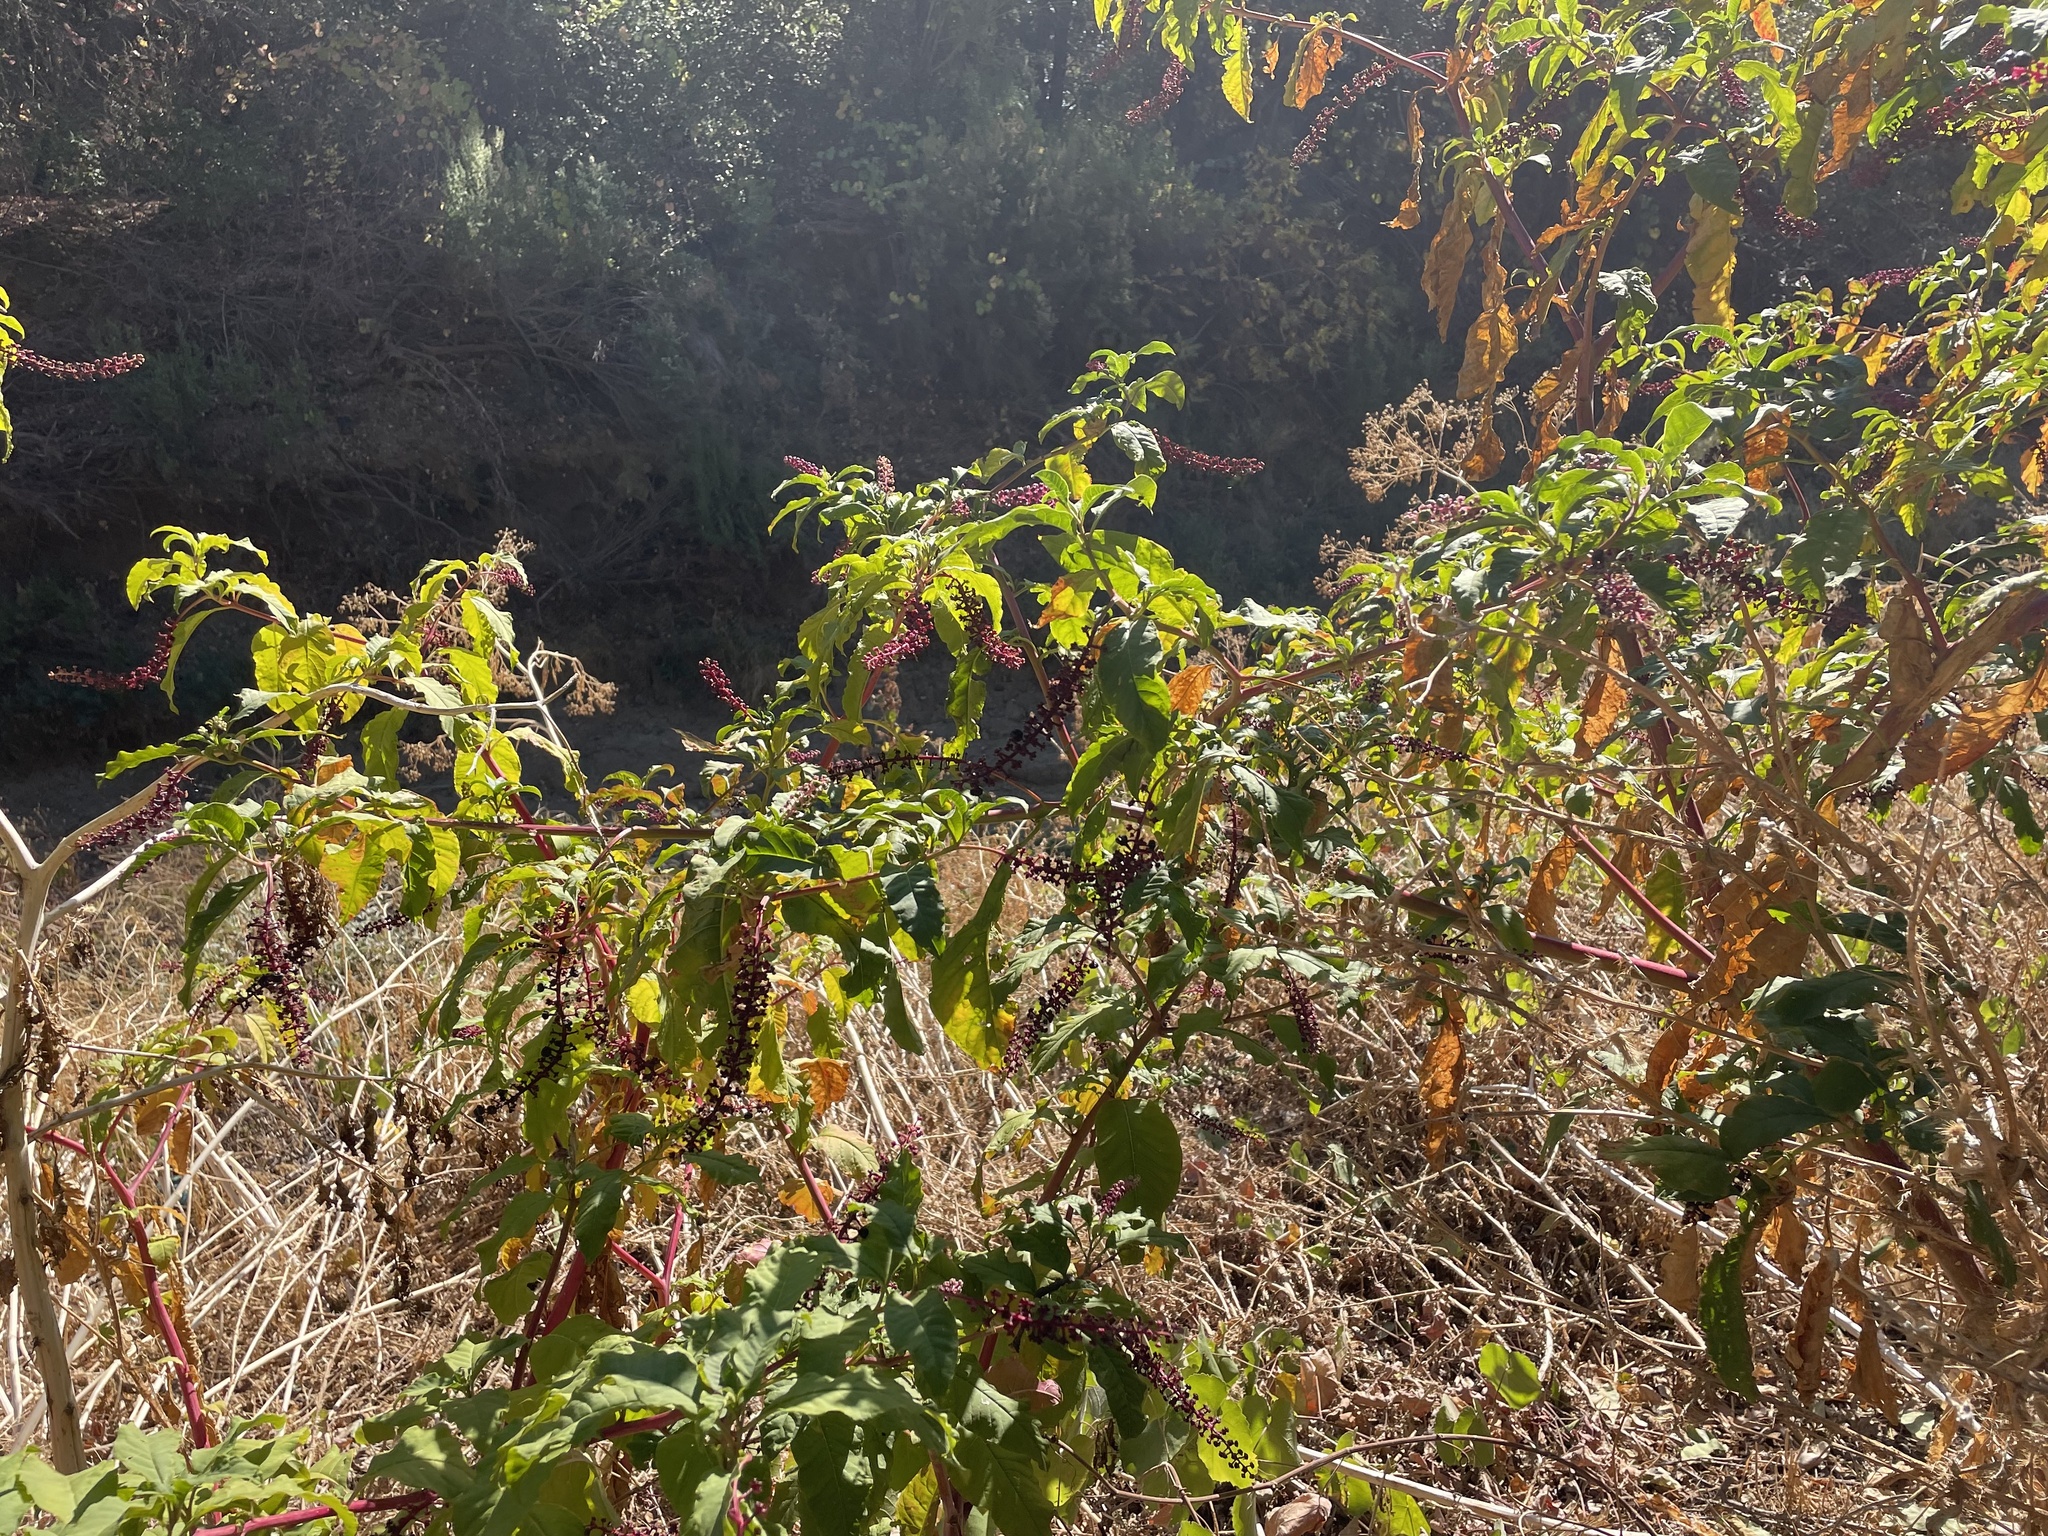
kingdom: Plantae
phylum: Tracheophyta
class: Magnoliopsida
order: Caryophyllales
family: Phytolaccaceae
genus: Phytolacca
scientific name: Phytolacca americana
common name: American pokeweed
